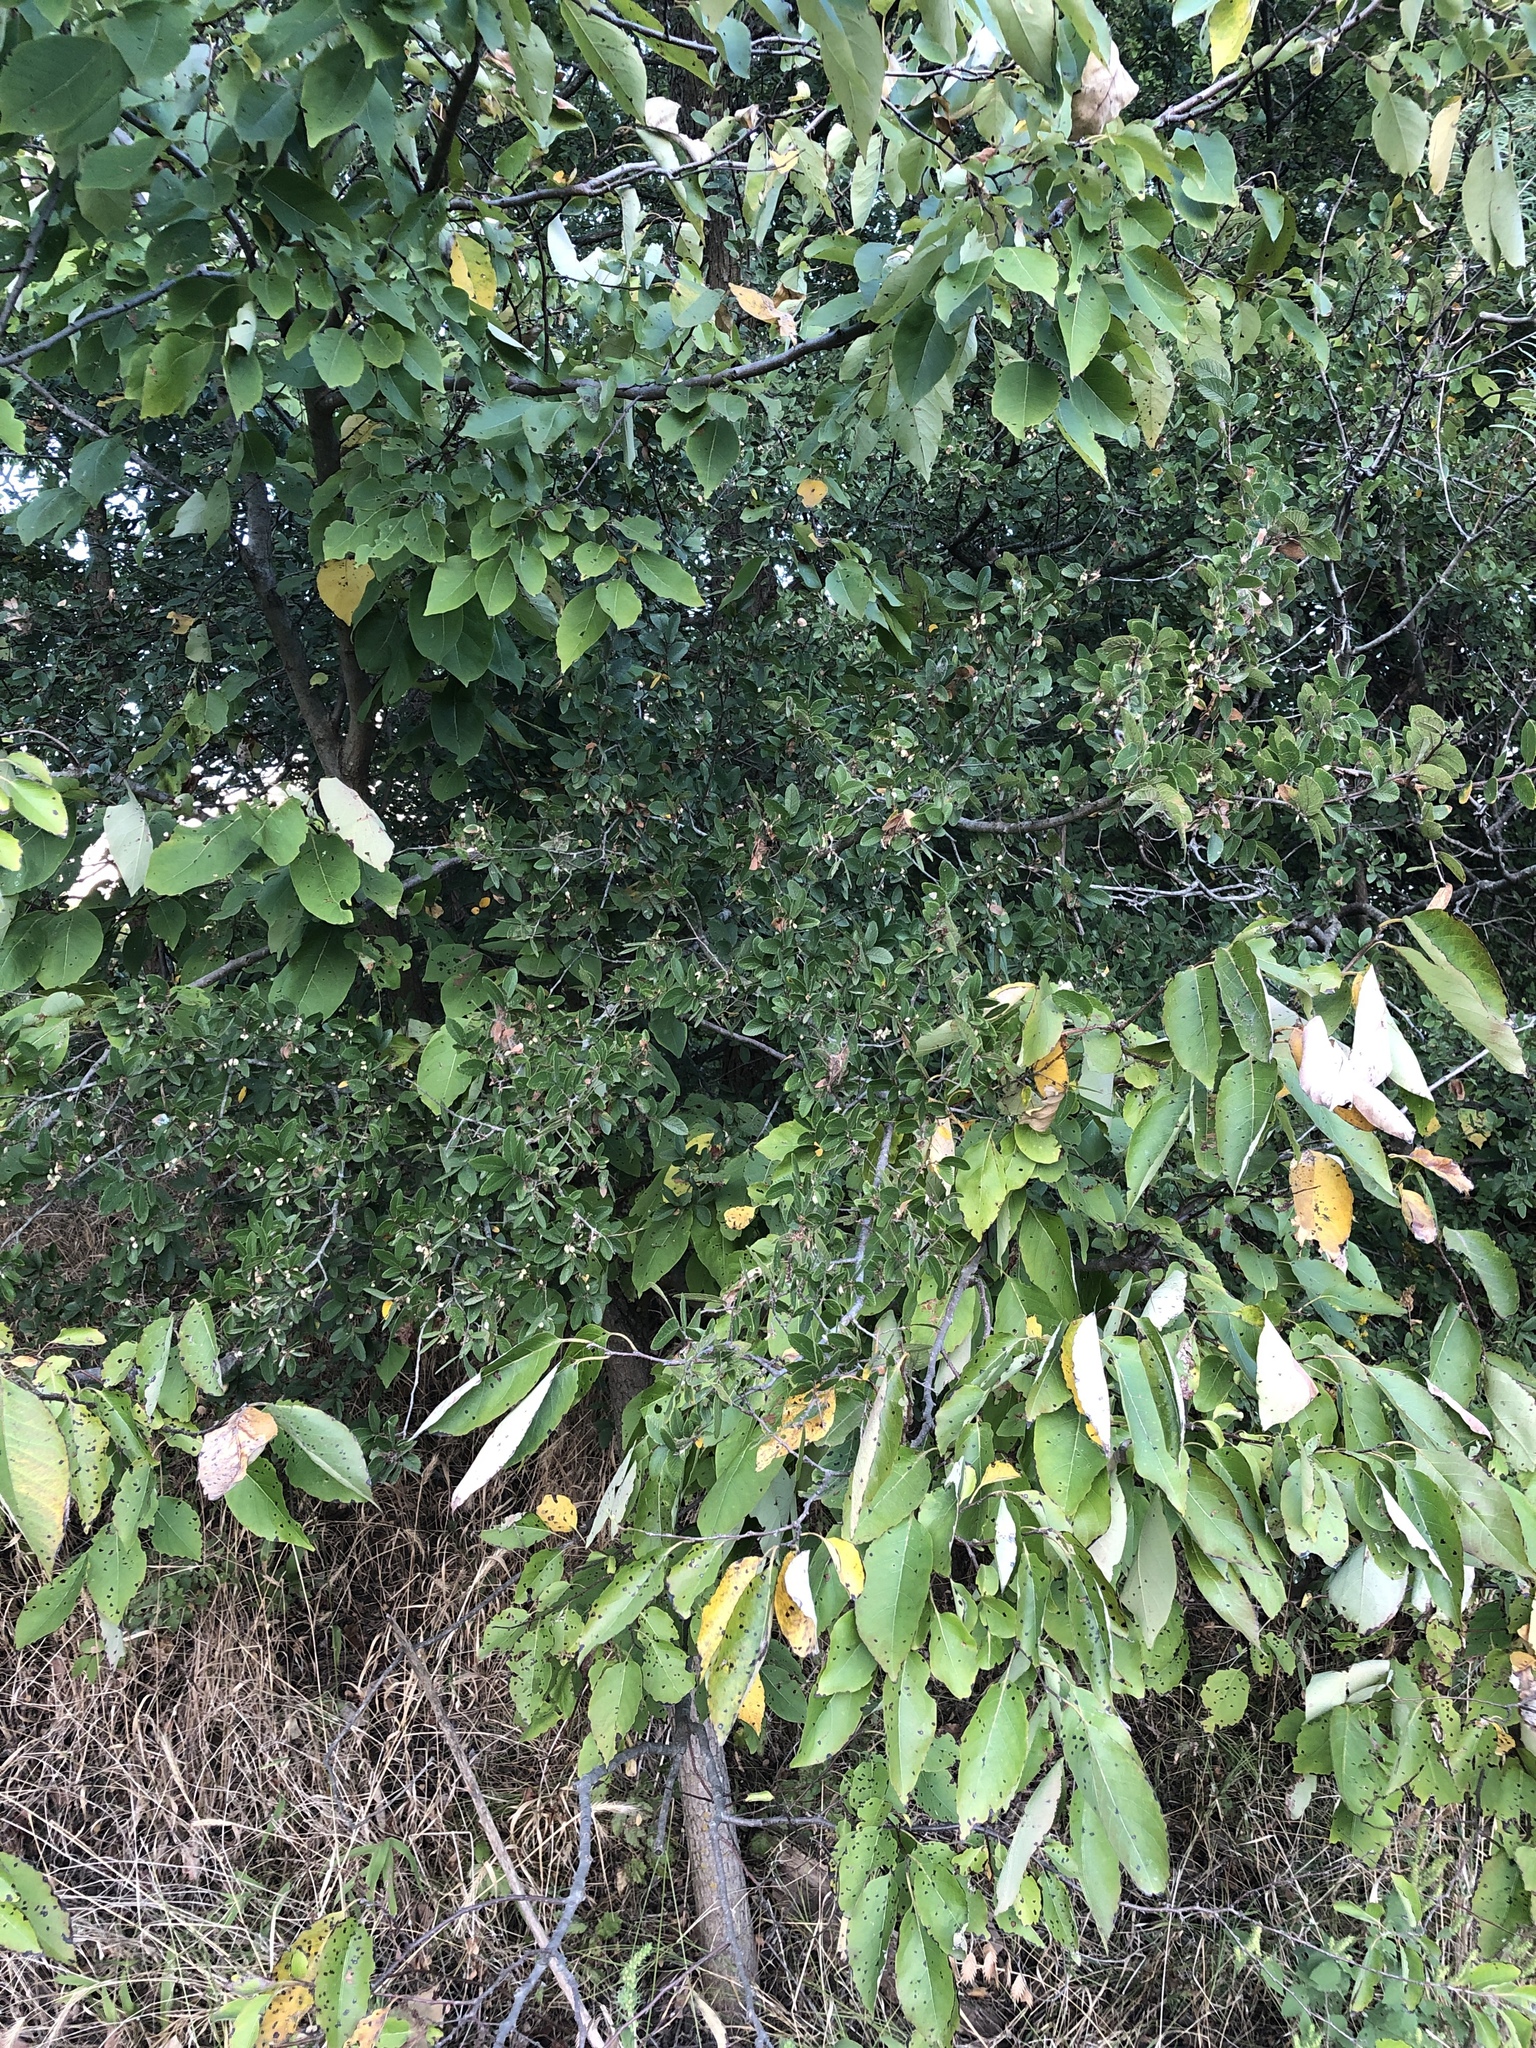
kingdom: Plantae
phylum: Tracheophyta
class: Magnoliopsida
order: Rosales
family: Ulmaceae
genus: Ulmus
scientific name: Ulmus crassifolia
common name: Basket elm
